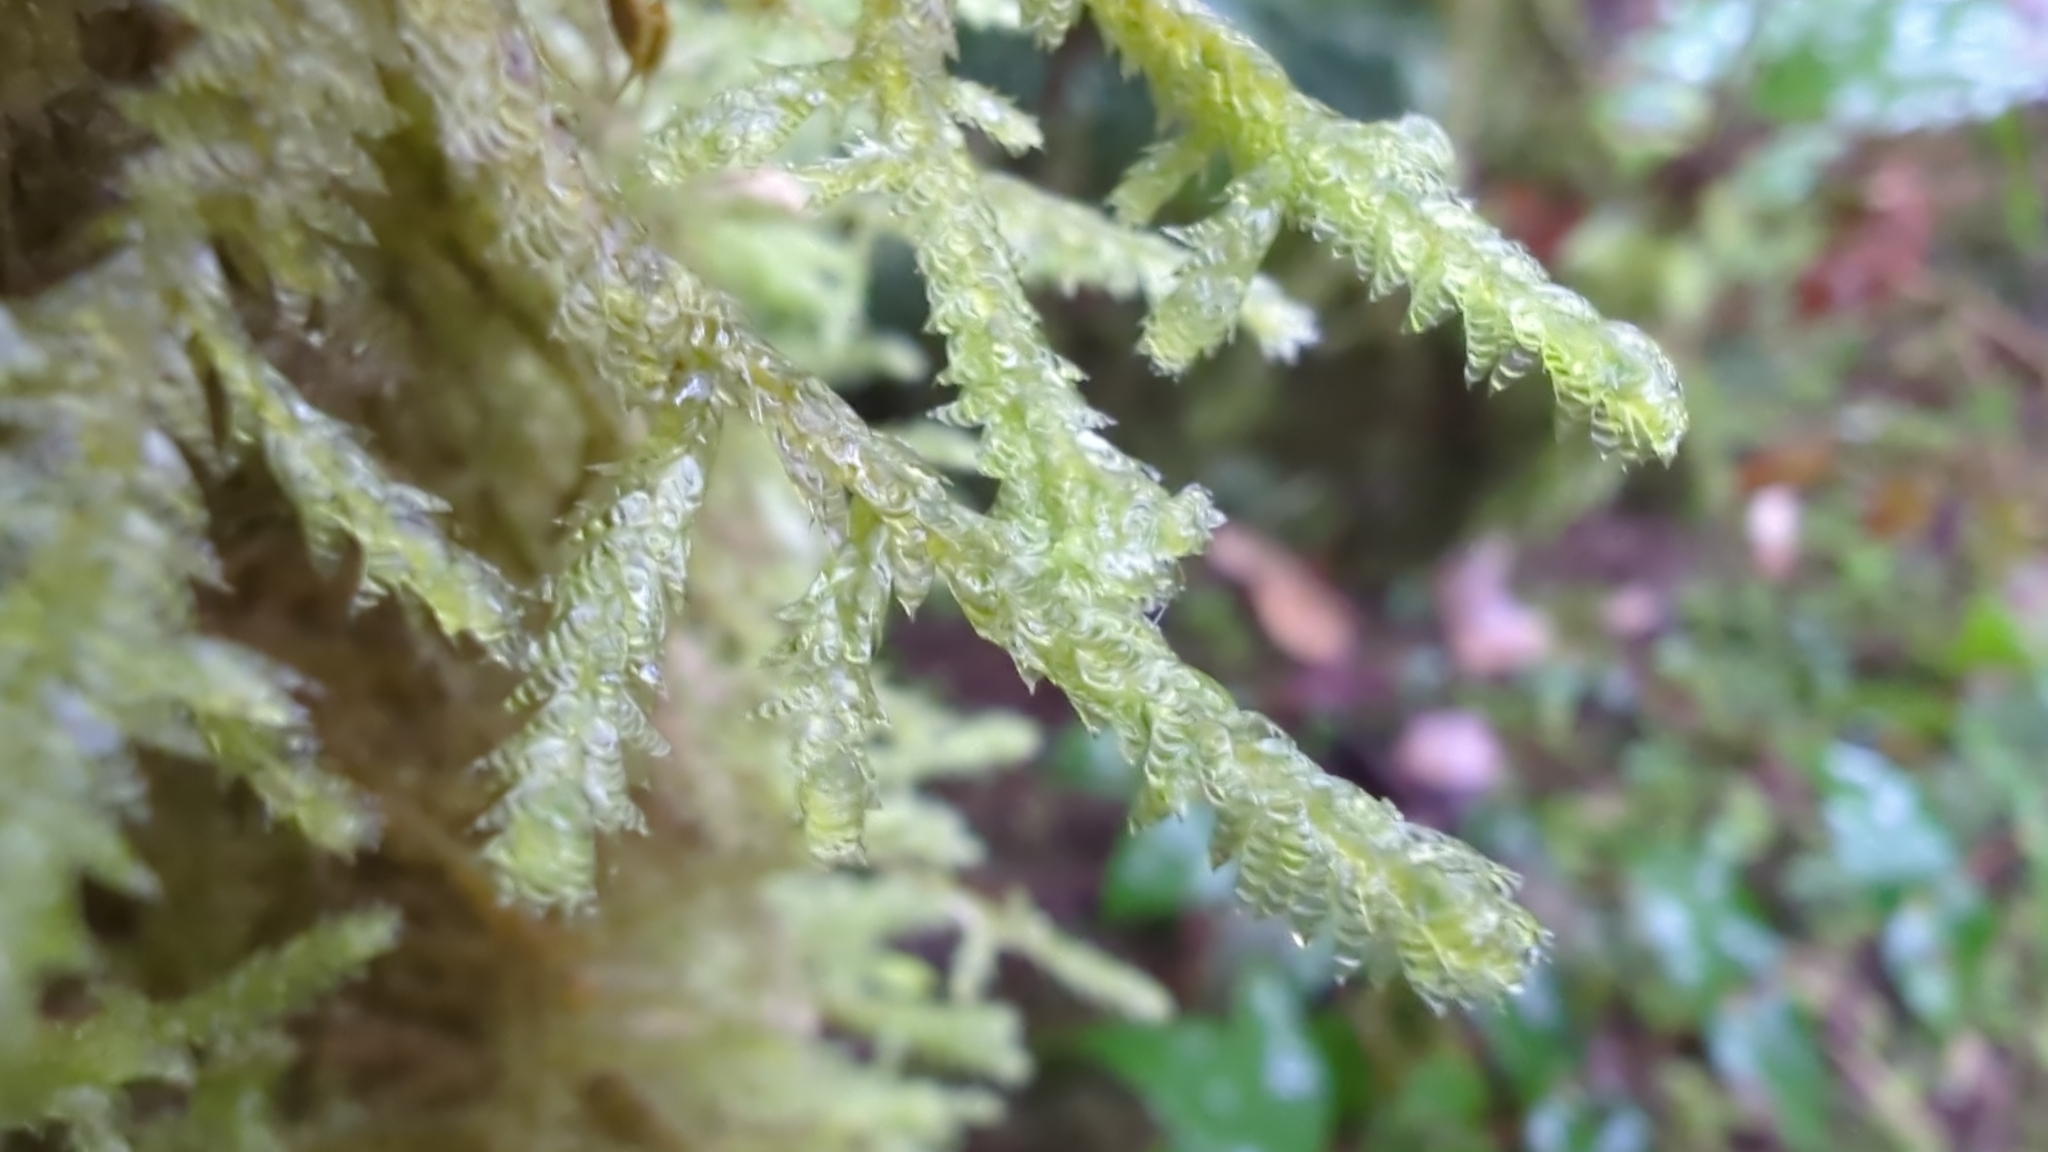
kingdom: Plantae
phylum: Bryophyta
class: Bryopsida
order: Hypnales
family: Neckeraceae
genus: Neckera
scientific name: Neckera douglasii
